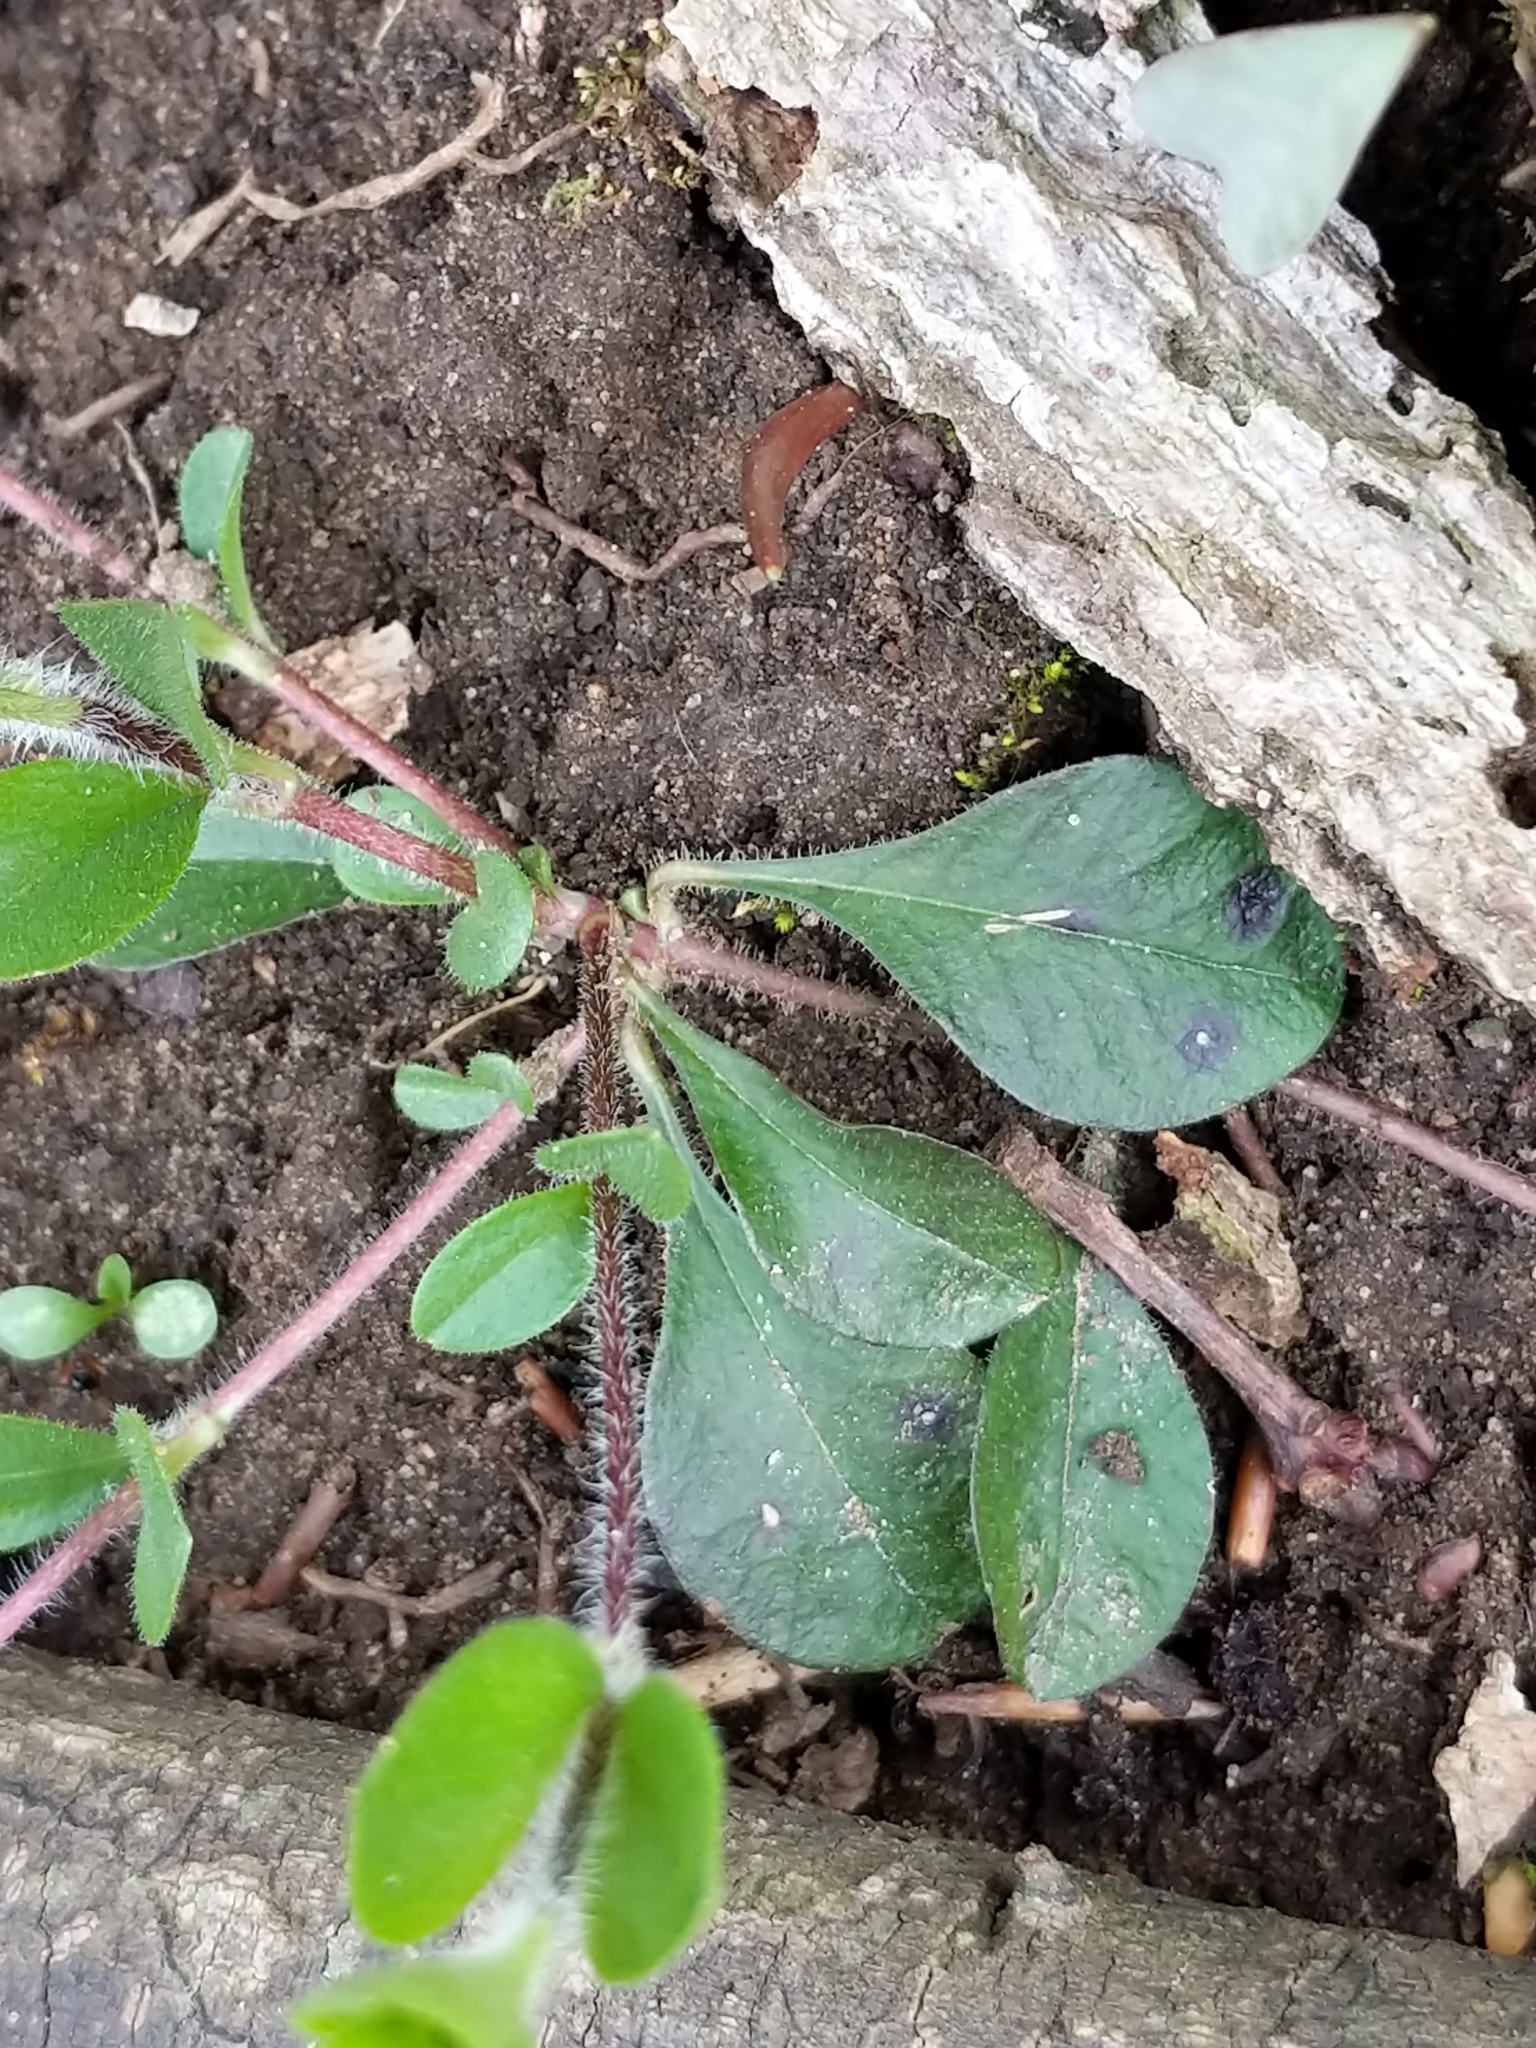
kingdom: Plantae
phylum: Tracheophyta
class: Magnoliopsida
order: Ericales
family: Polemoniaceae
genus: Phlox
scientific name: Phlox stolonifera
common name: Creeping phlox
